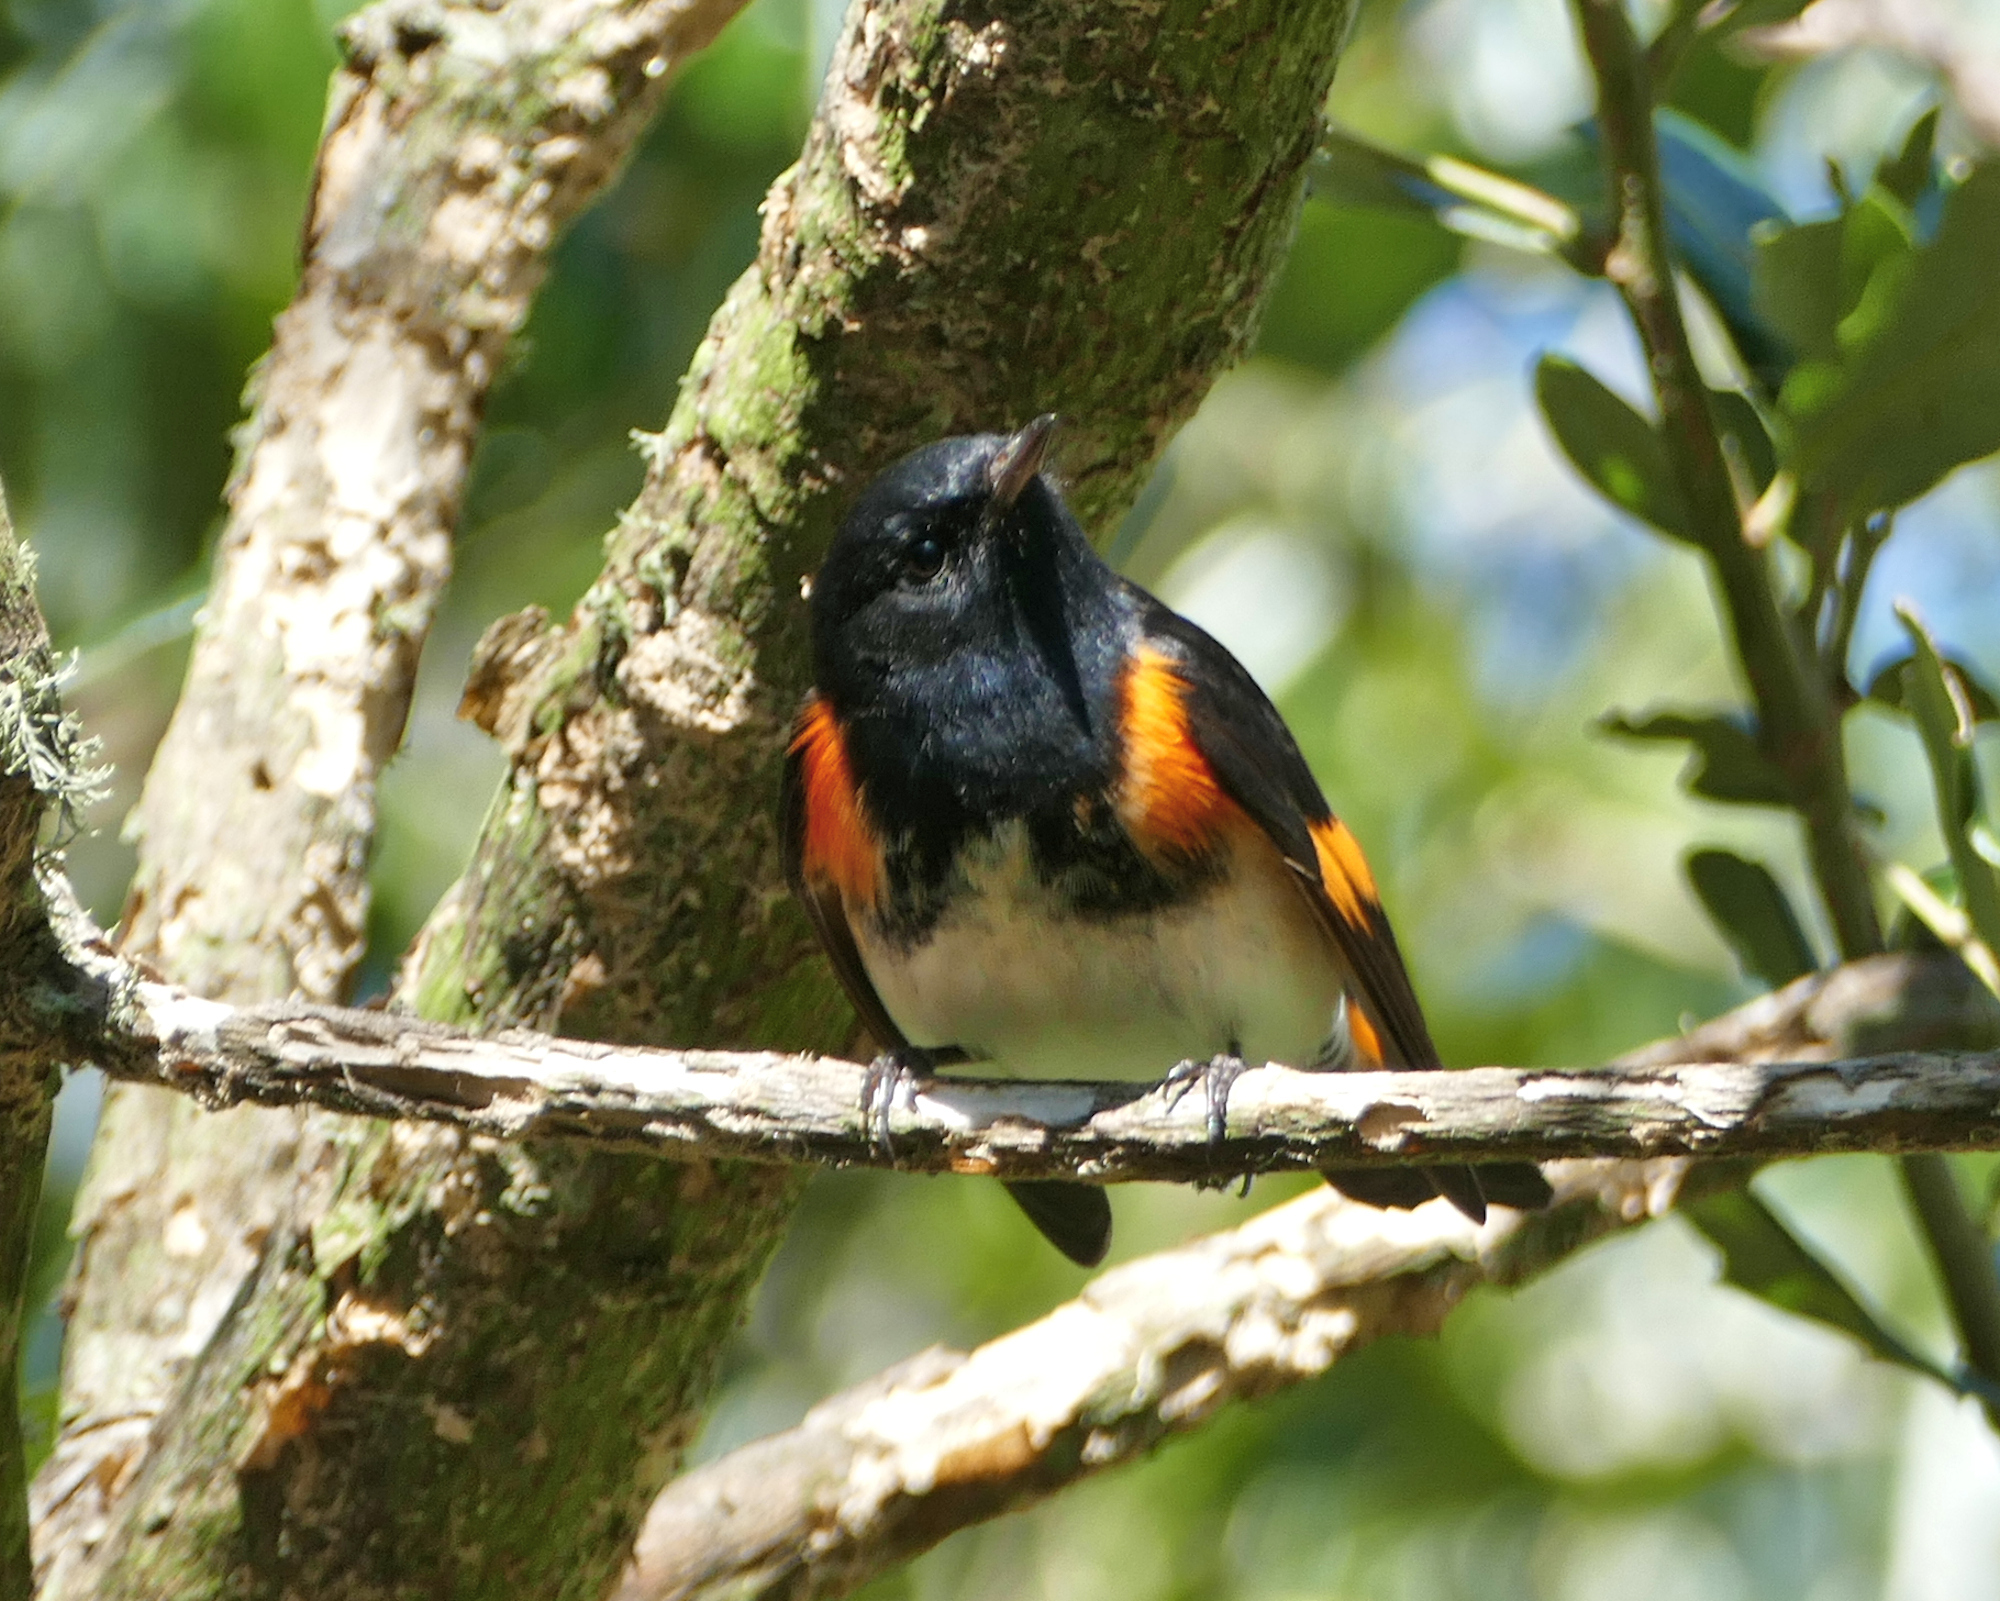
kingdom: Animalia
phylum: Chordata
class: Aves
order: Passeriformes
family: Parulidae
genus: Setophaga
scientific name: Setophaga ruticilla
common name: American redstart
